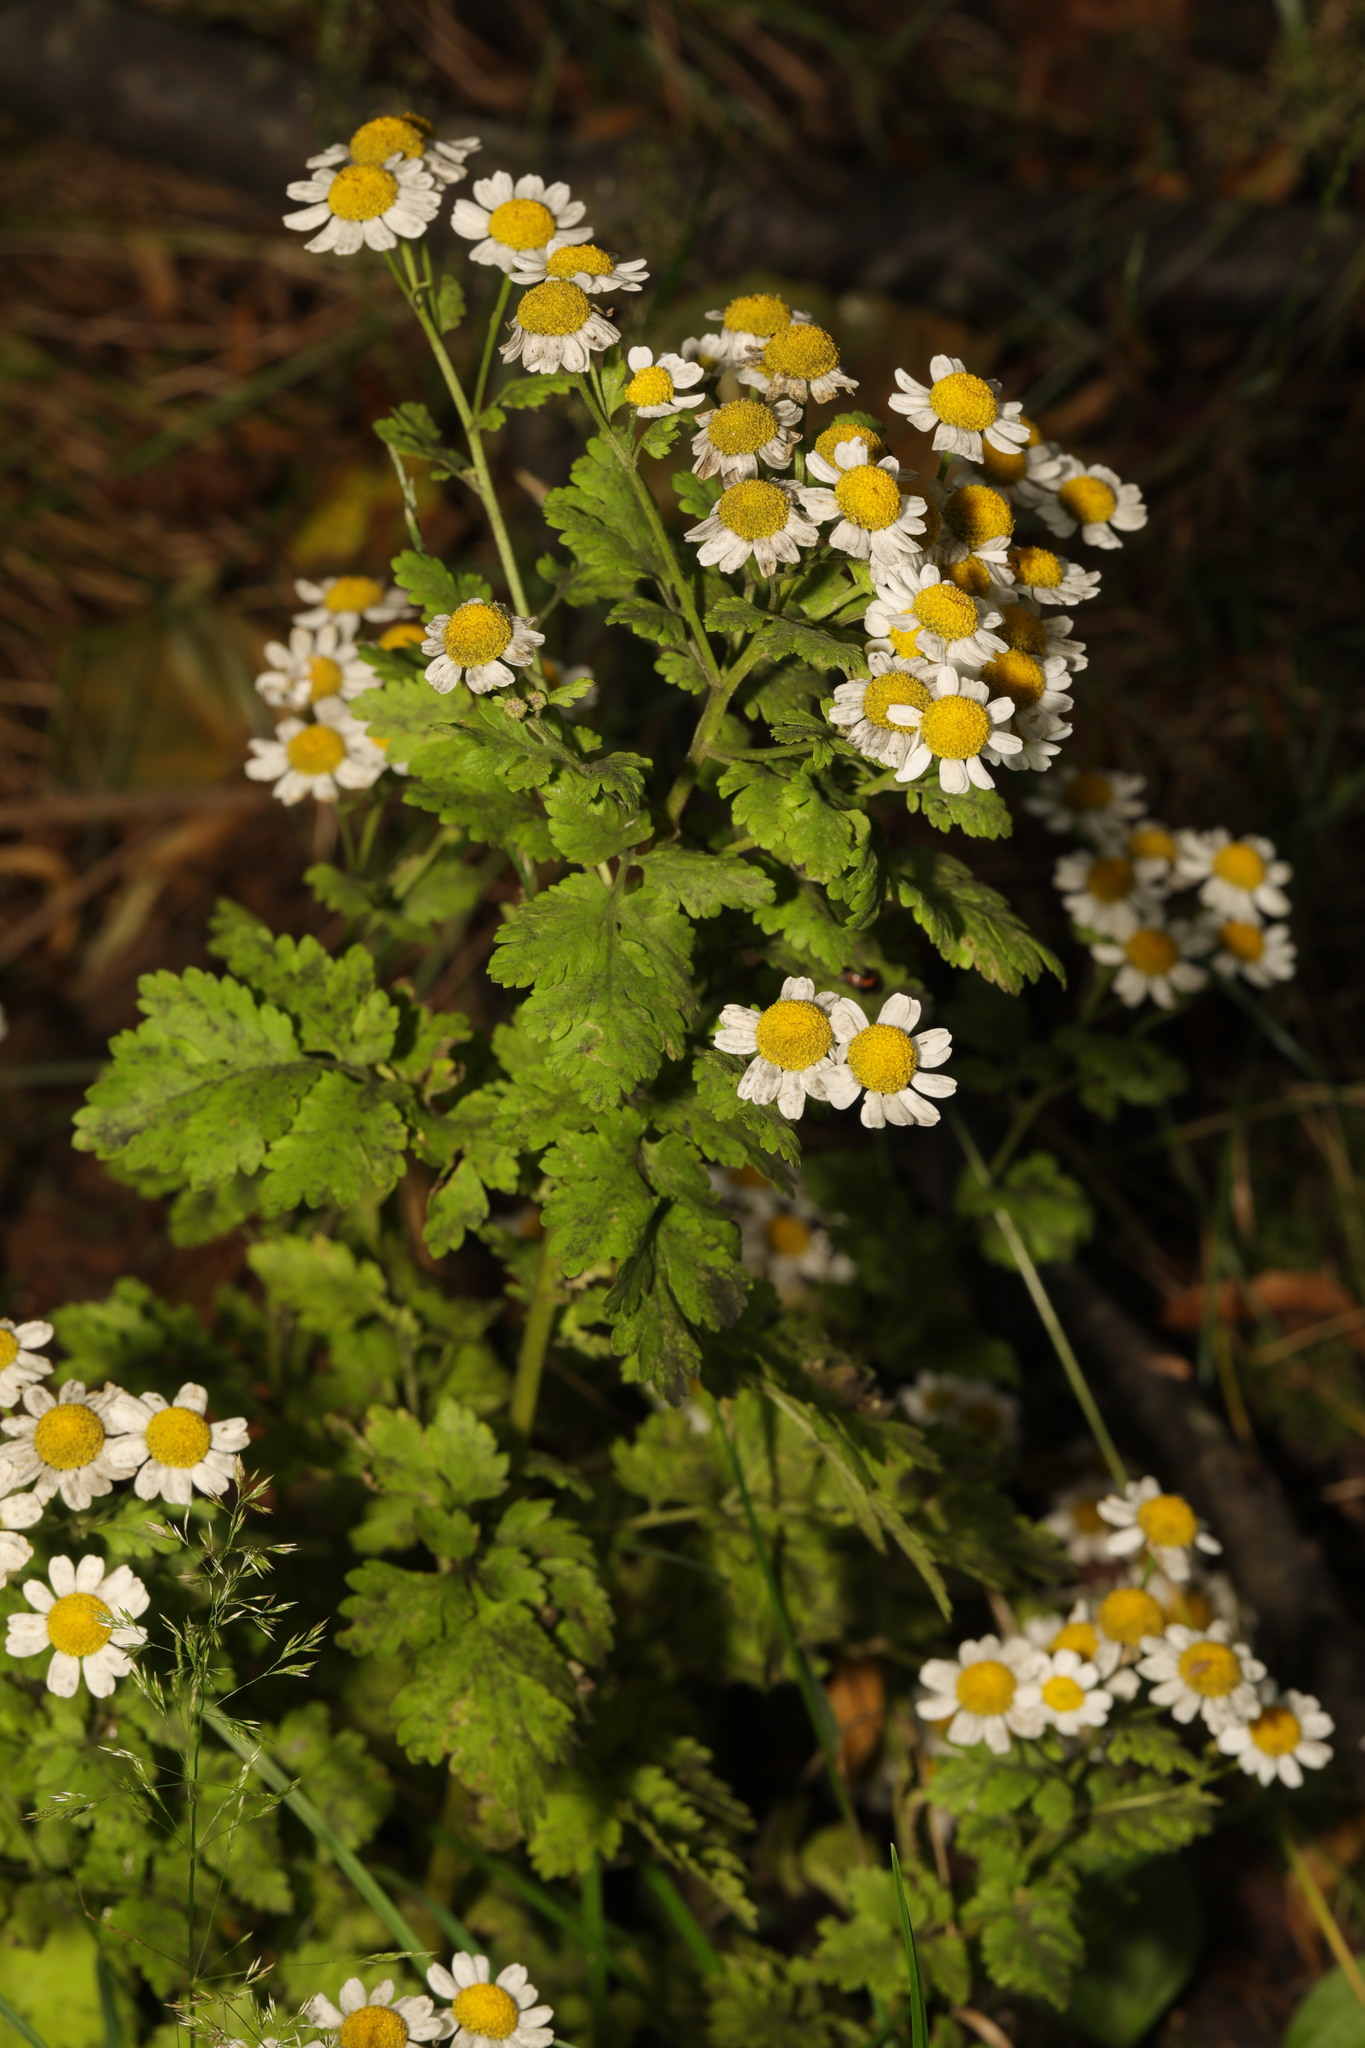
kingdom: Plantae
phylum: Tracheophyta
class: Magnoliopsida
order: Asterales
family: Asteraceae
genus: Tanacetum
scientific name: Tanacetum parthenium
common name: Feverfew
